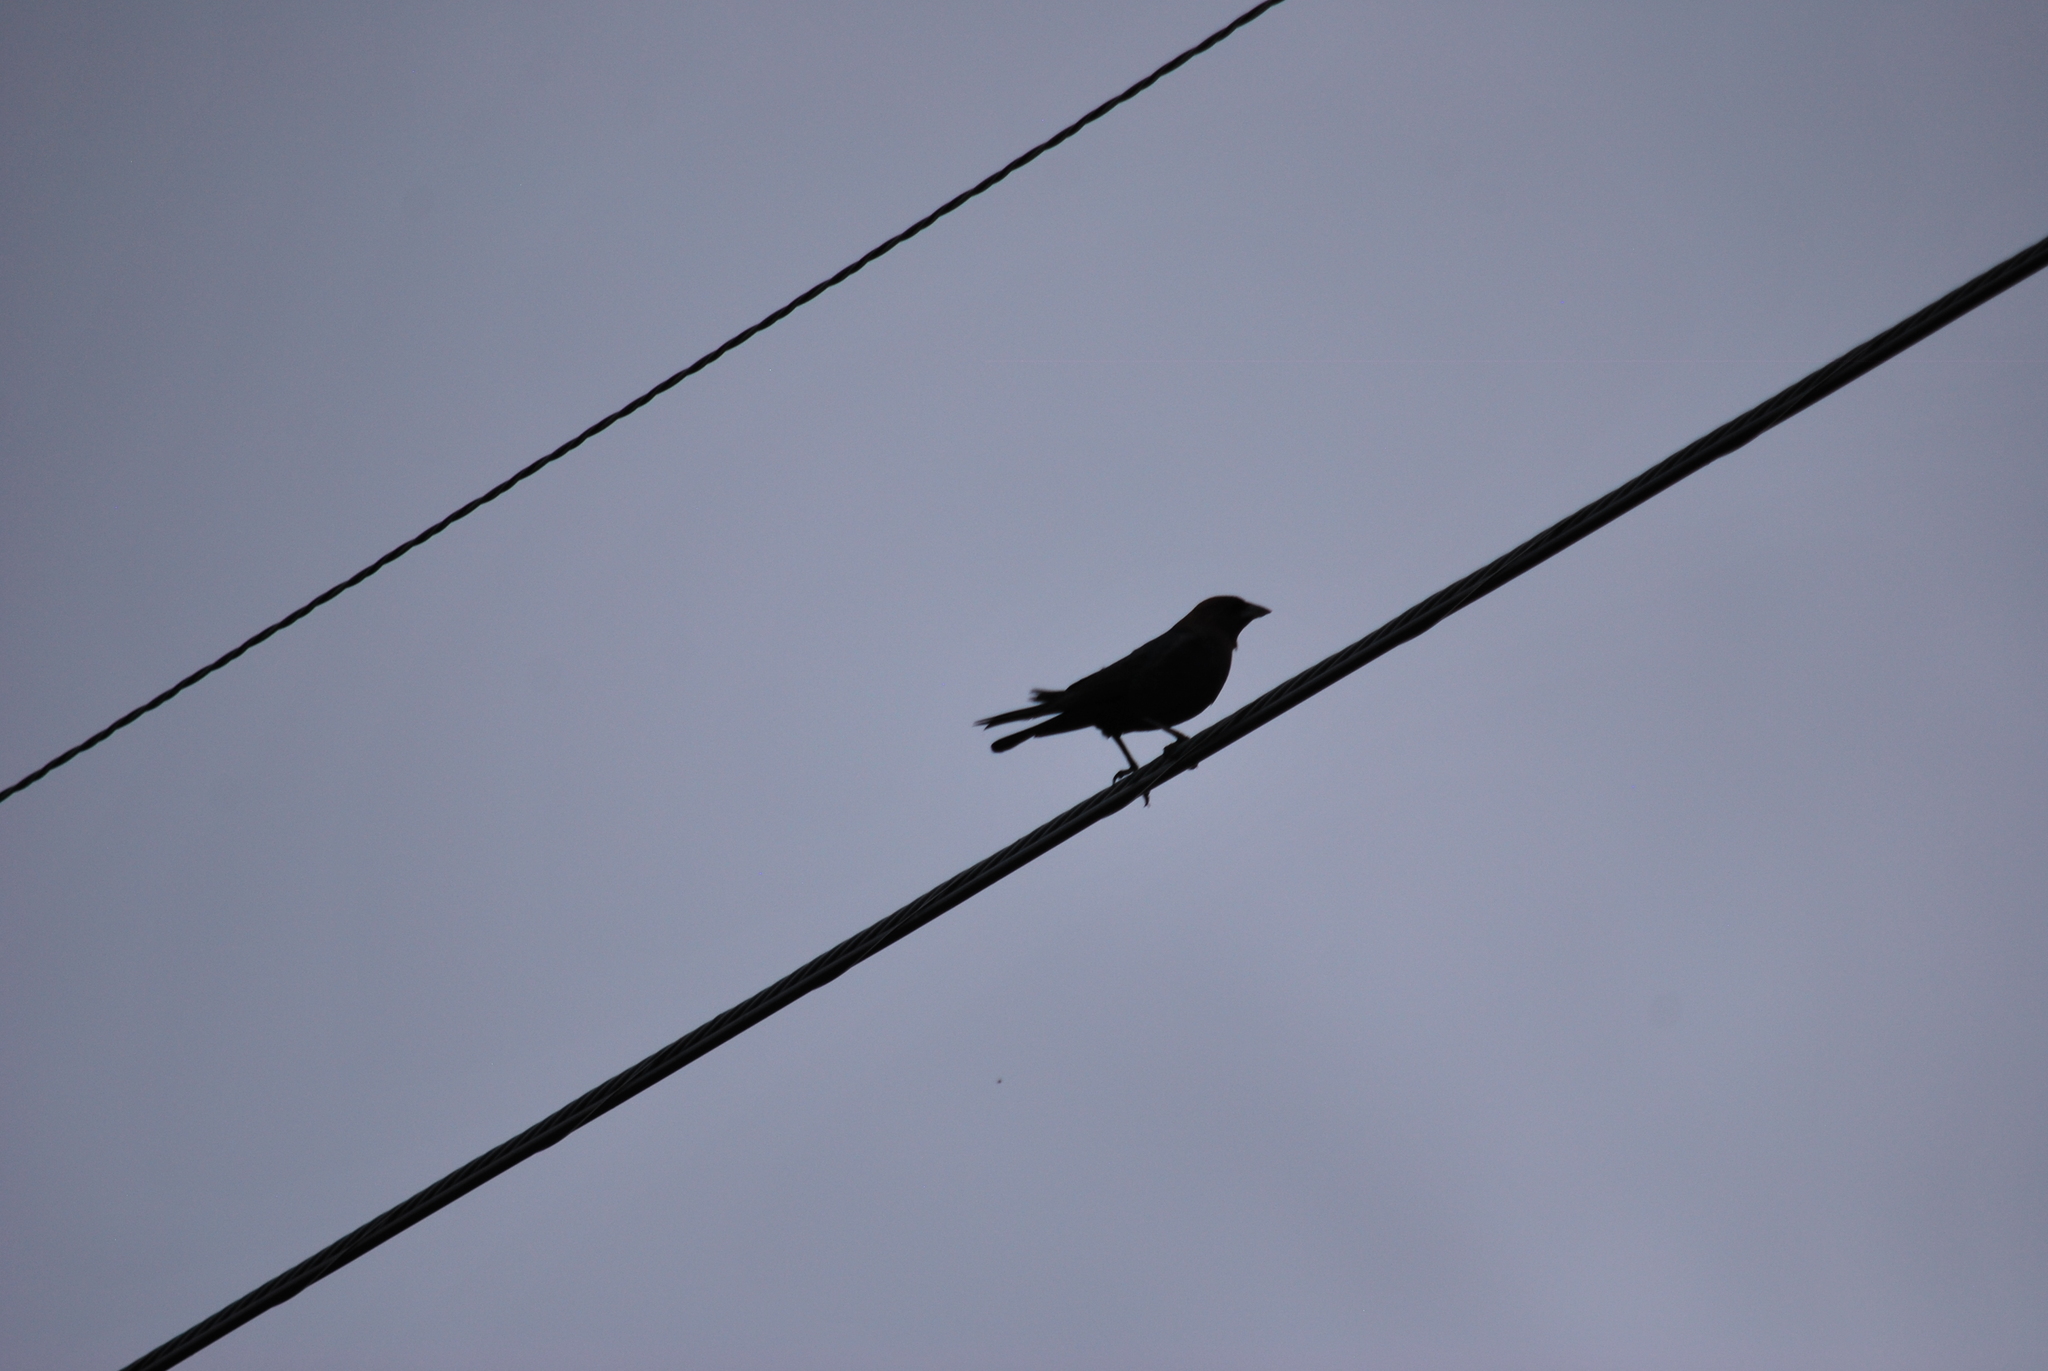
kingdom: Animalia
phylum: Chordata
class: Aves
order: Passeriformes
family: Icteridae
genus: Molothrus
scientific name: Molothrus ater
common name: Brown-headed cowbird
